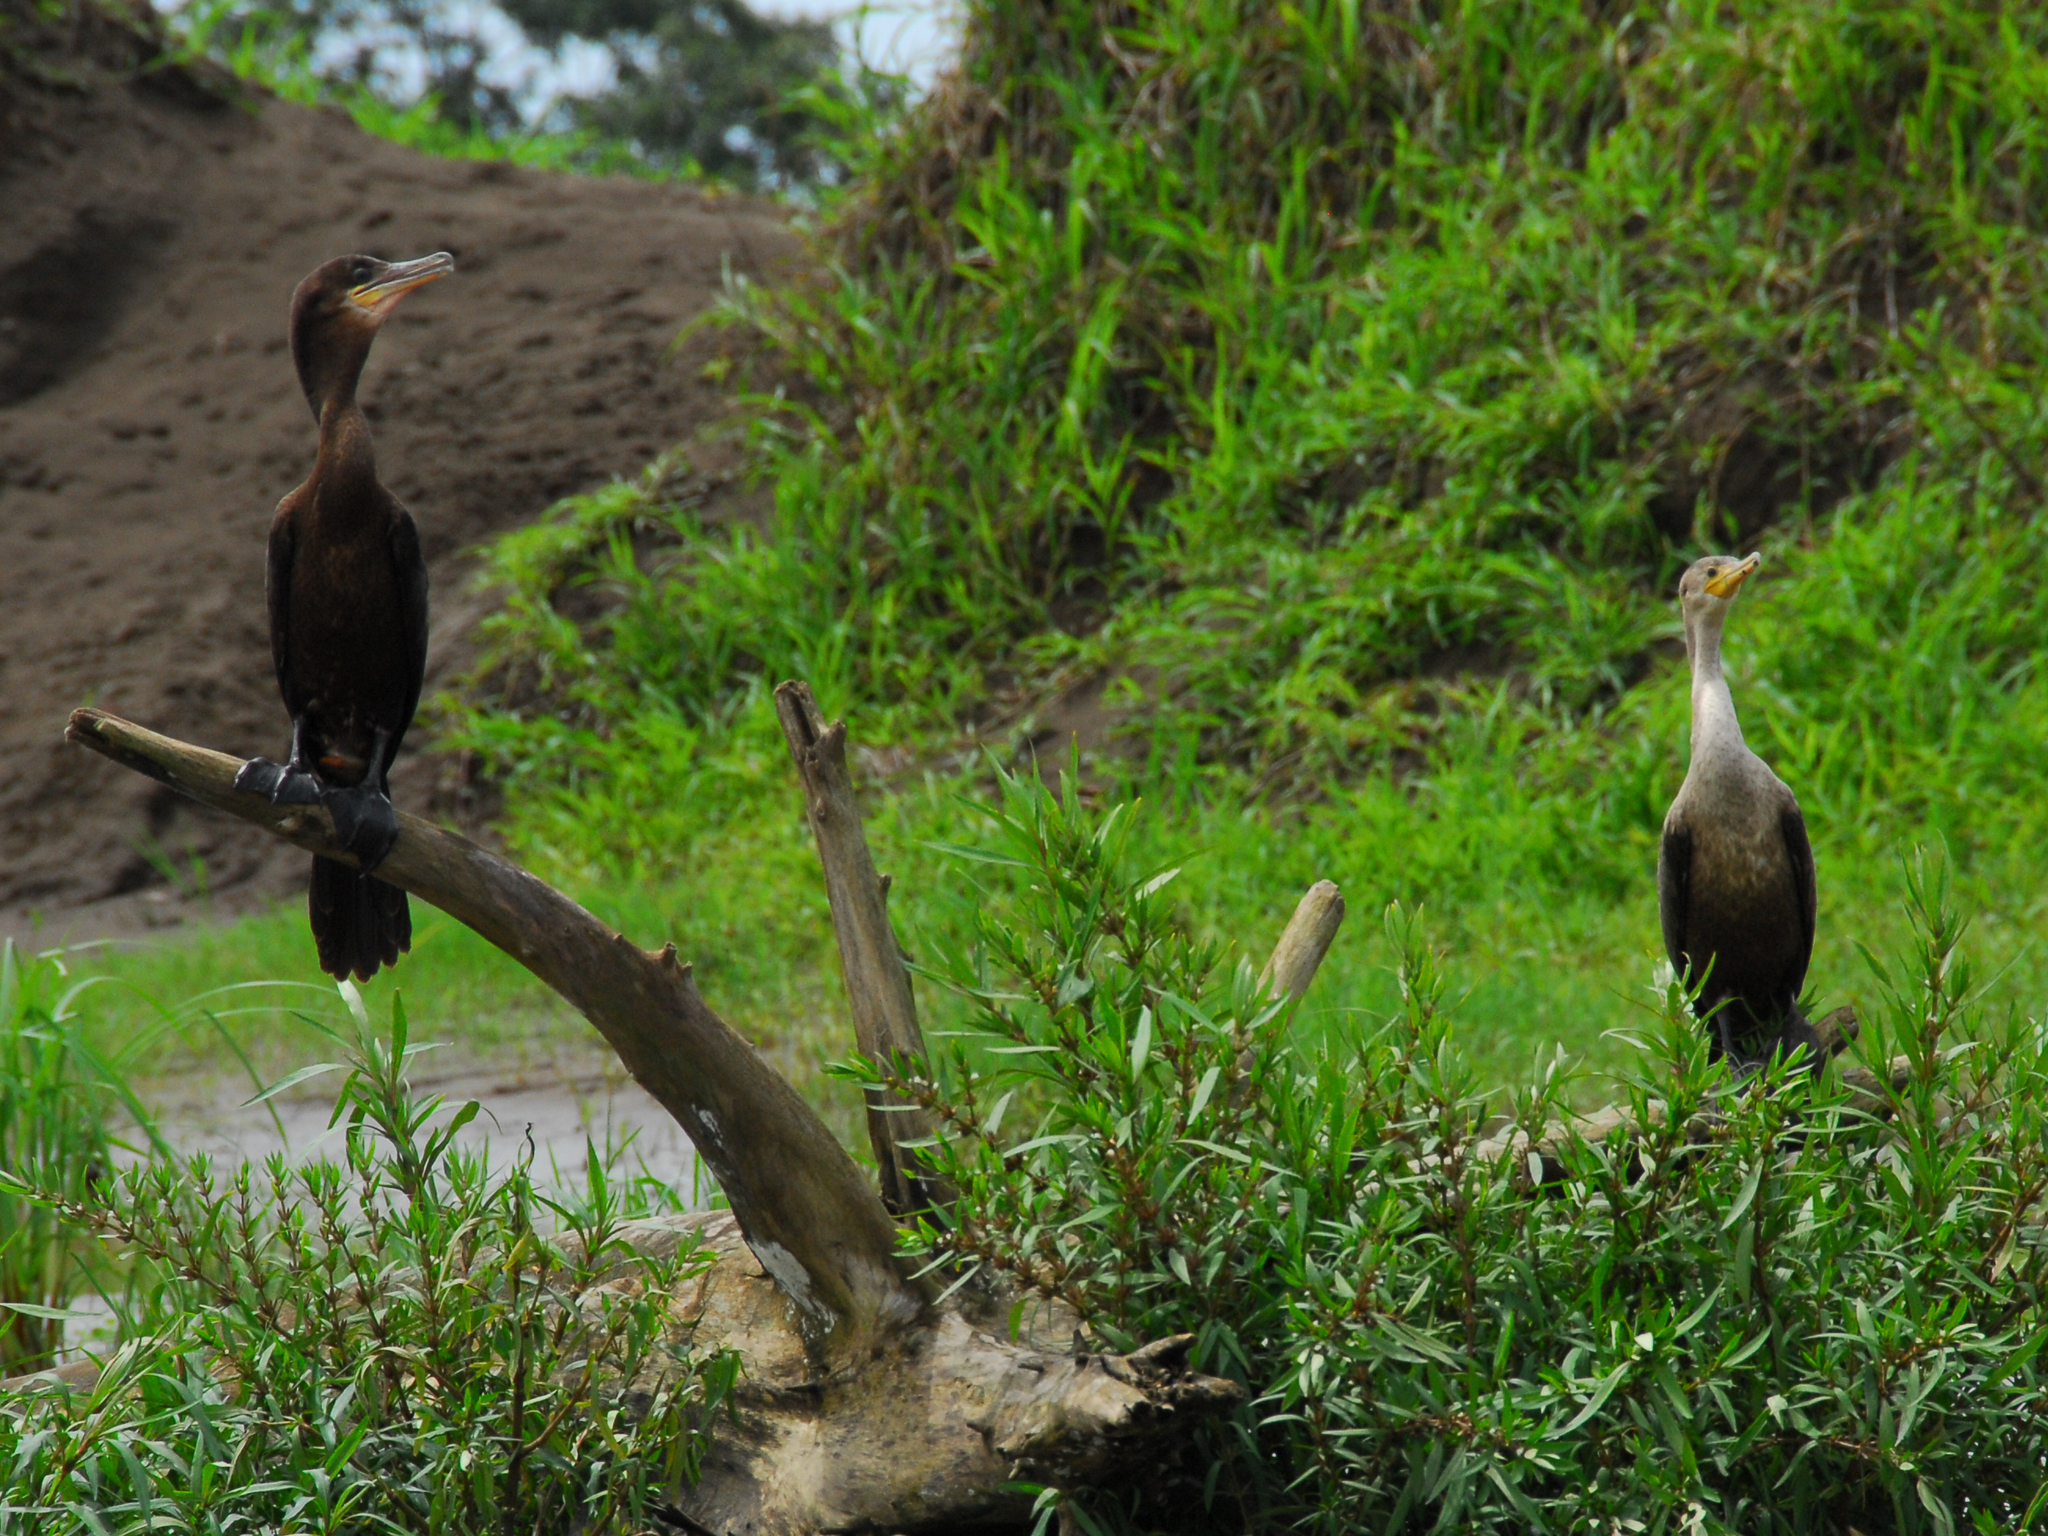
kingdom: Animalia
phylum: Chordata
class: Aves
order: Suliformes
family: Phalacrocoracidae
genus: Phalacrocorax
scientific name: Phalacrocorax brasilianus
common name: Neotropic cormorant
